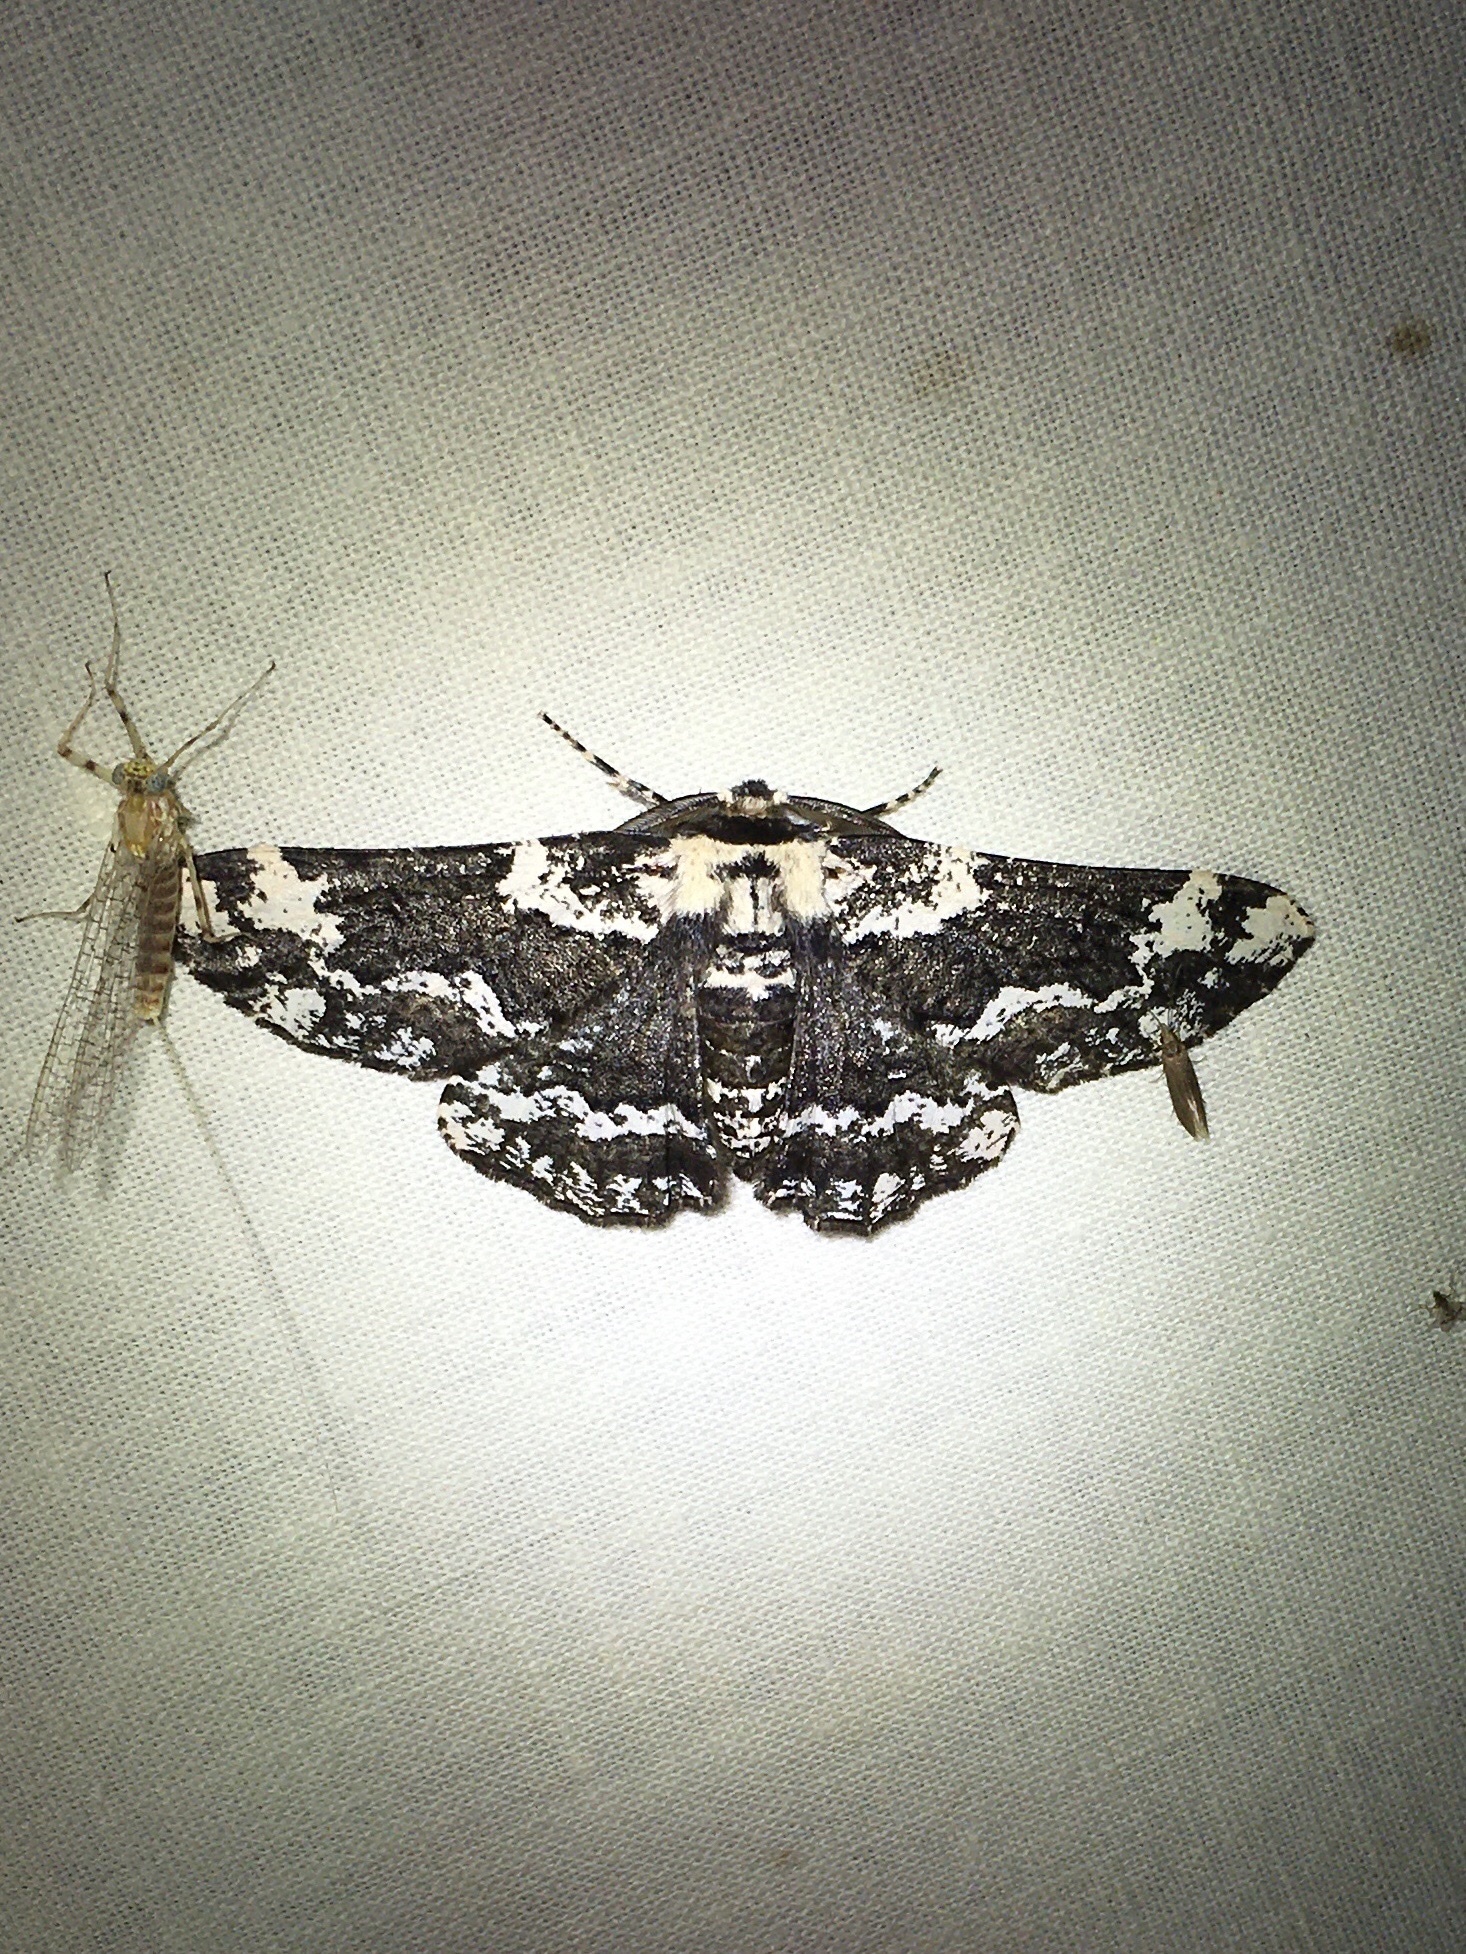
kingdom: Animalia
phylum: Arthropoda
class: Insecta
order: Lepidoptera
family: Geometridae
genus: Phaeoura
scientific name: Phaeoura quernaria
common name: Oak beauty
